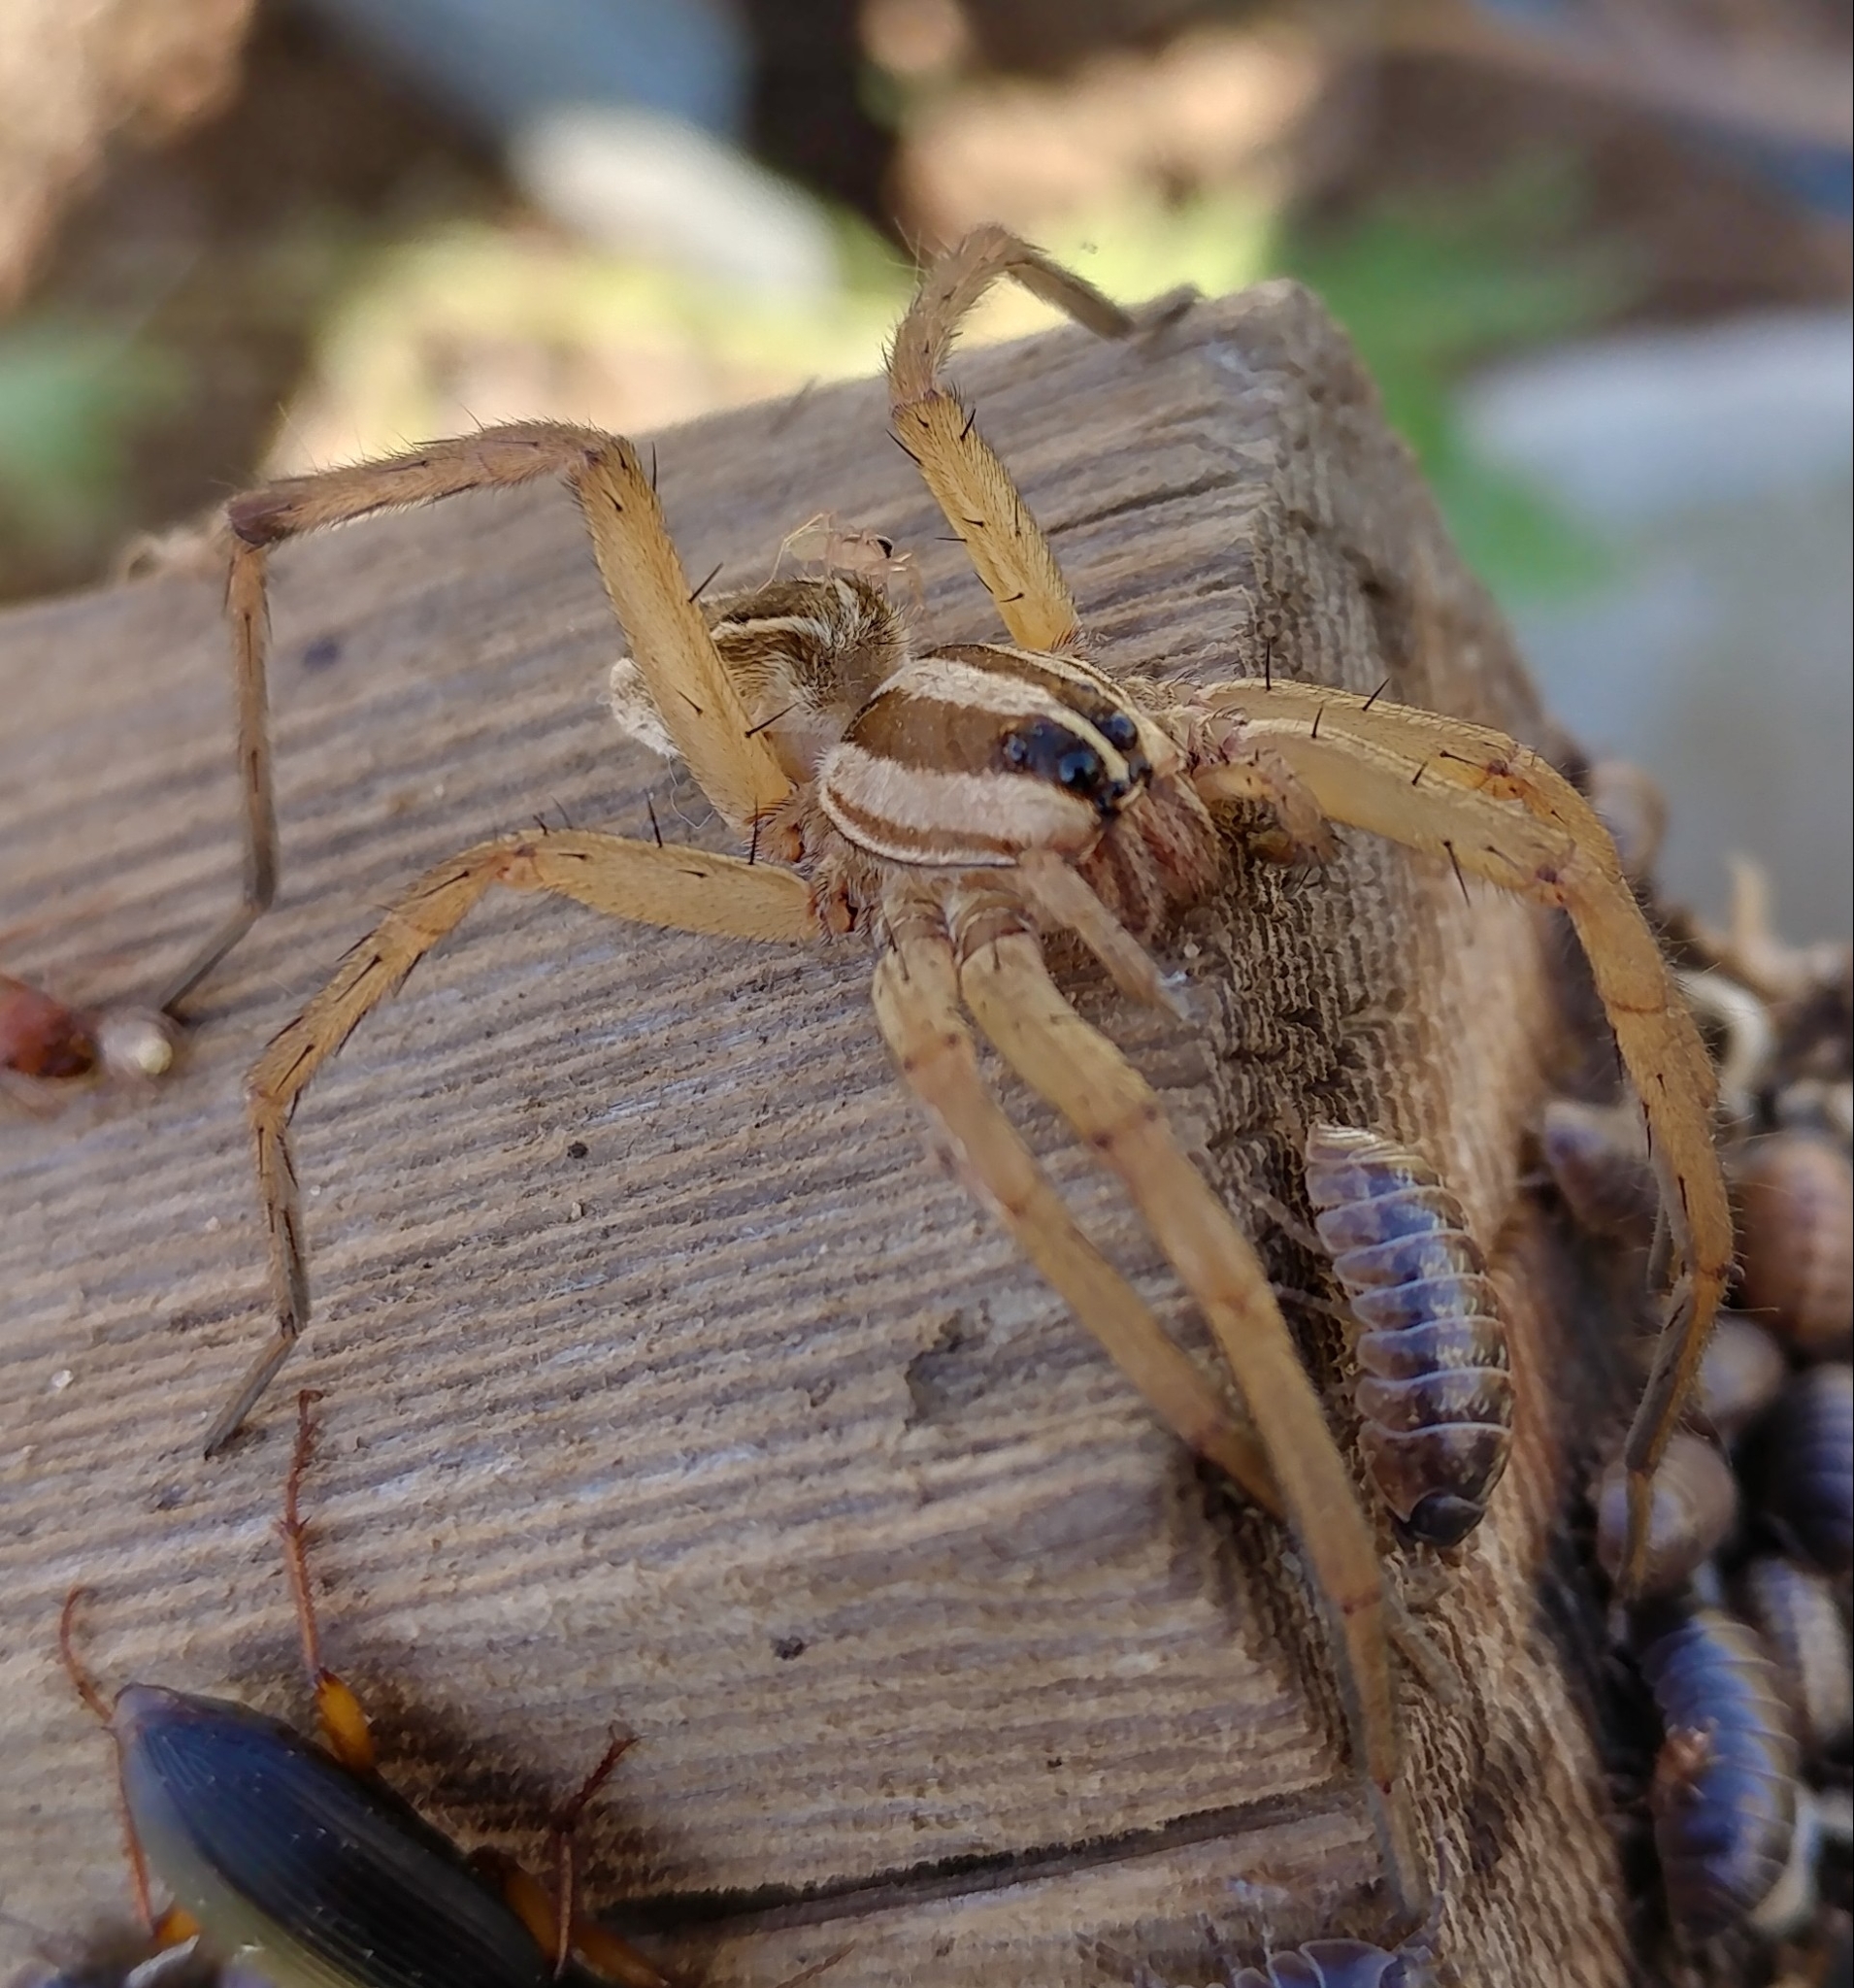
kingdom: Animalia
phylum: Arthropoda
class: Arachnida
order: Araneae
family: Lycosidae
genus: Rabidosa
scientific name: Rabidosa rabida
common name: Rabid wolf spider
